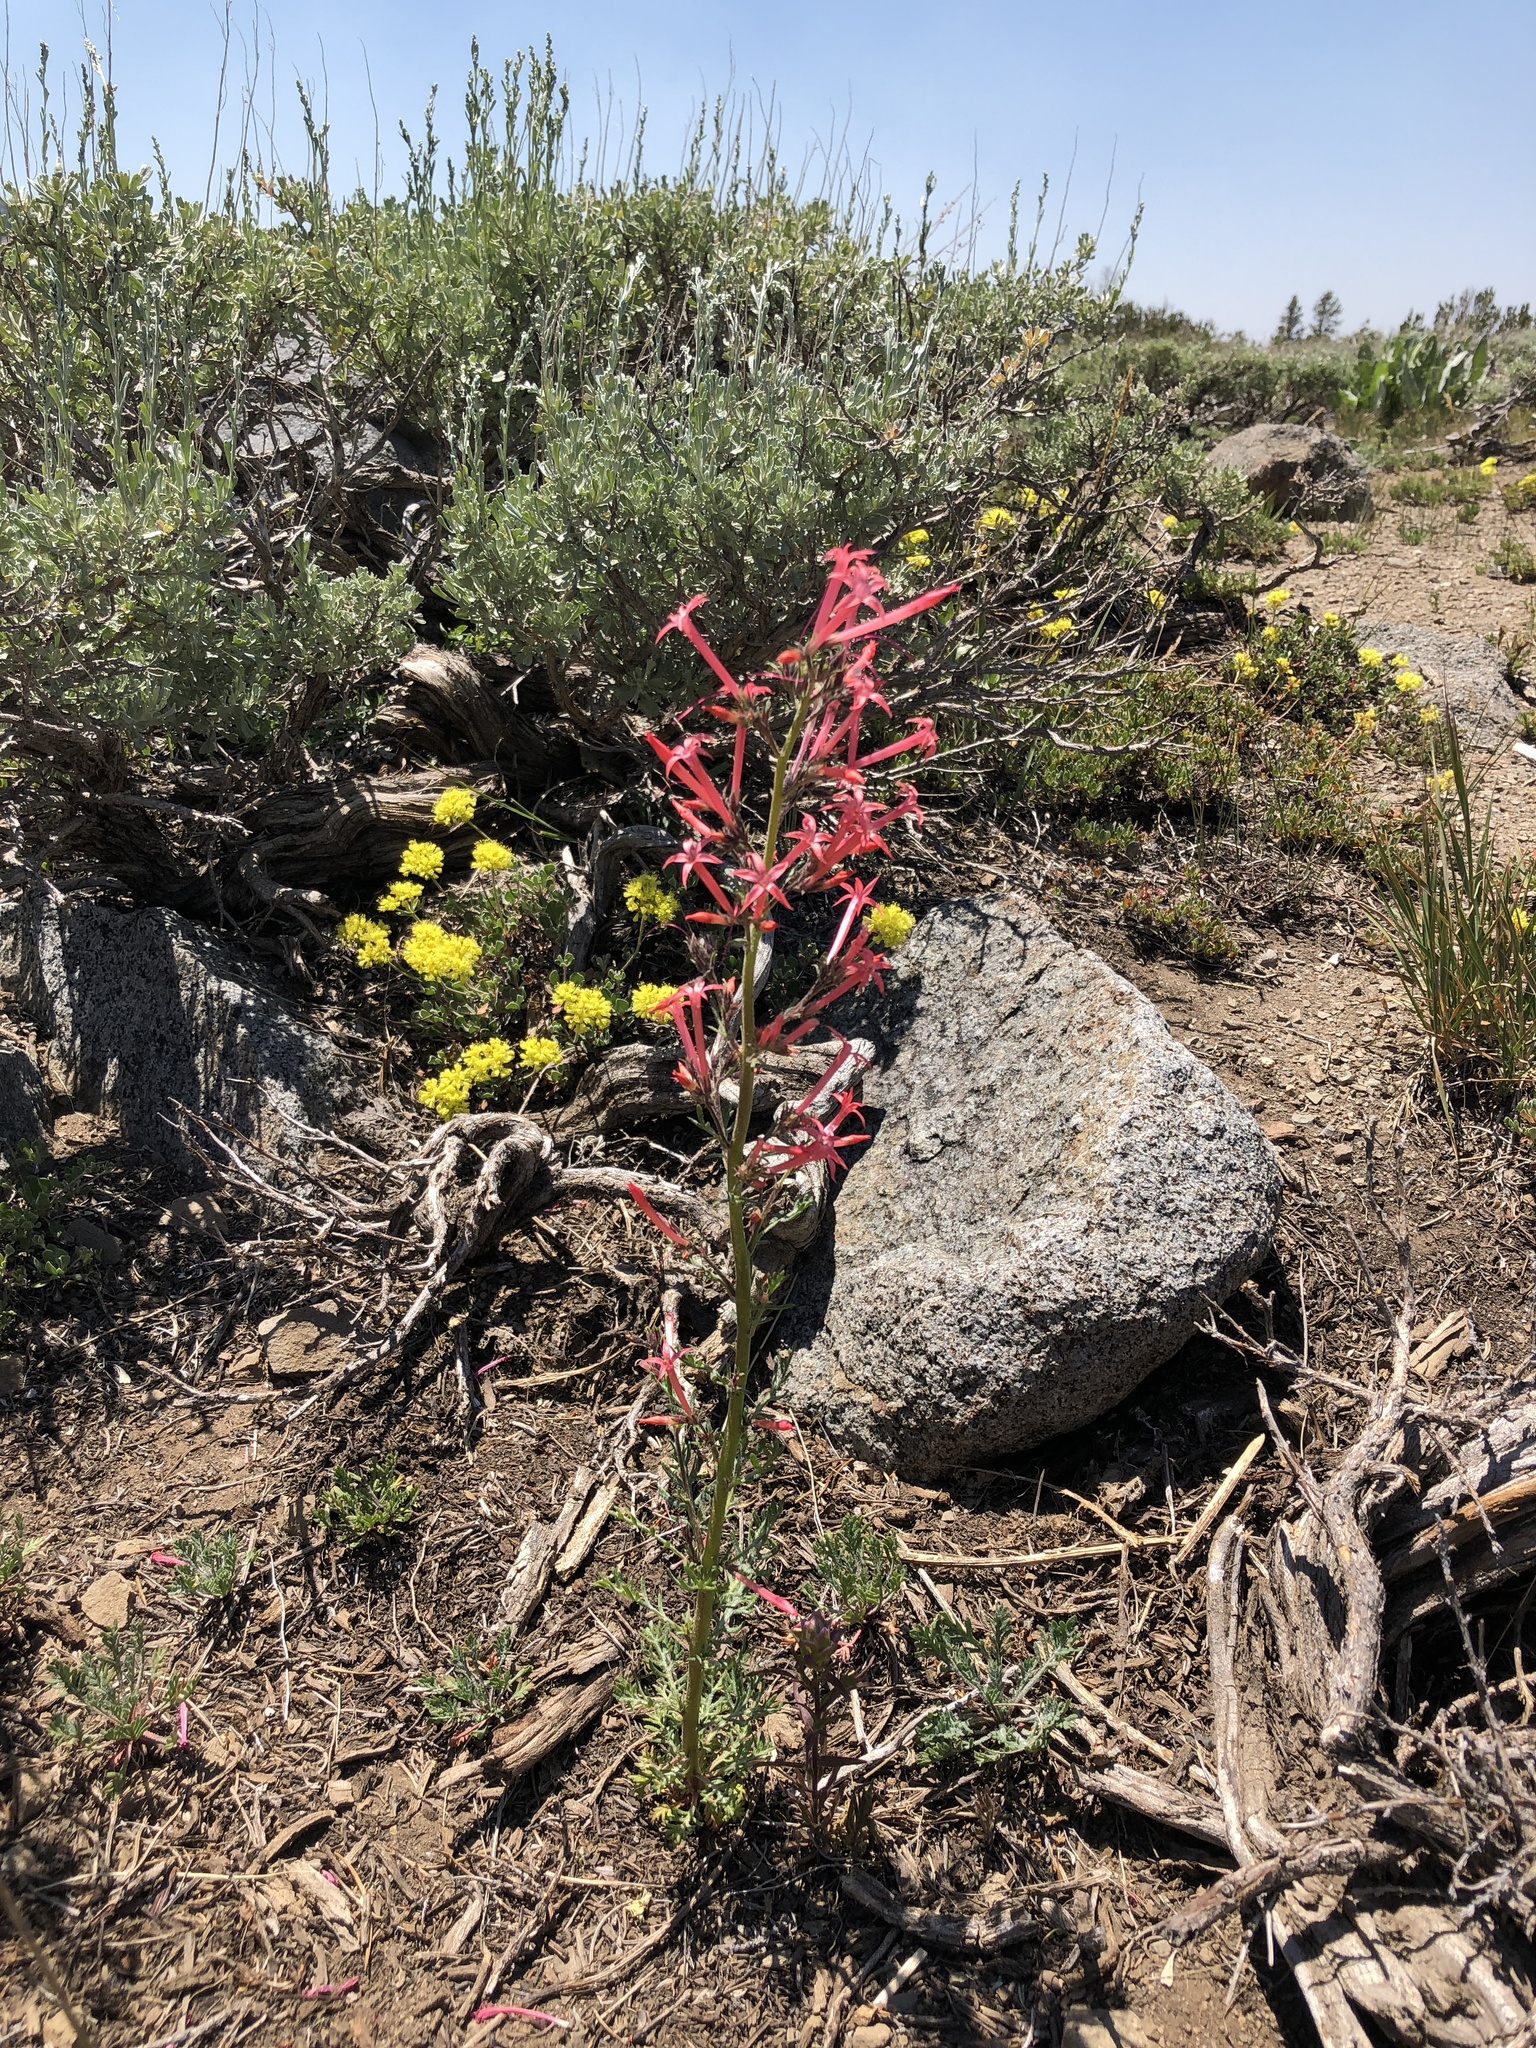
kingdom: Plantae
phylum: Tracheophyta
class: Magnoliopsida
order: Ericales
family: Polemoniaceae
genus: Ipomopsis
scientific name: Ipomopsis tenuituba
